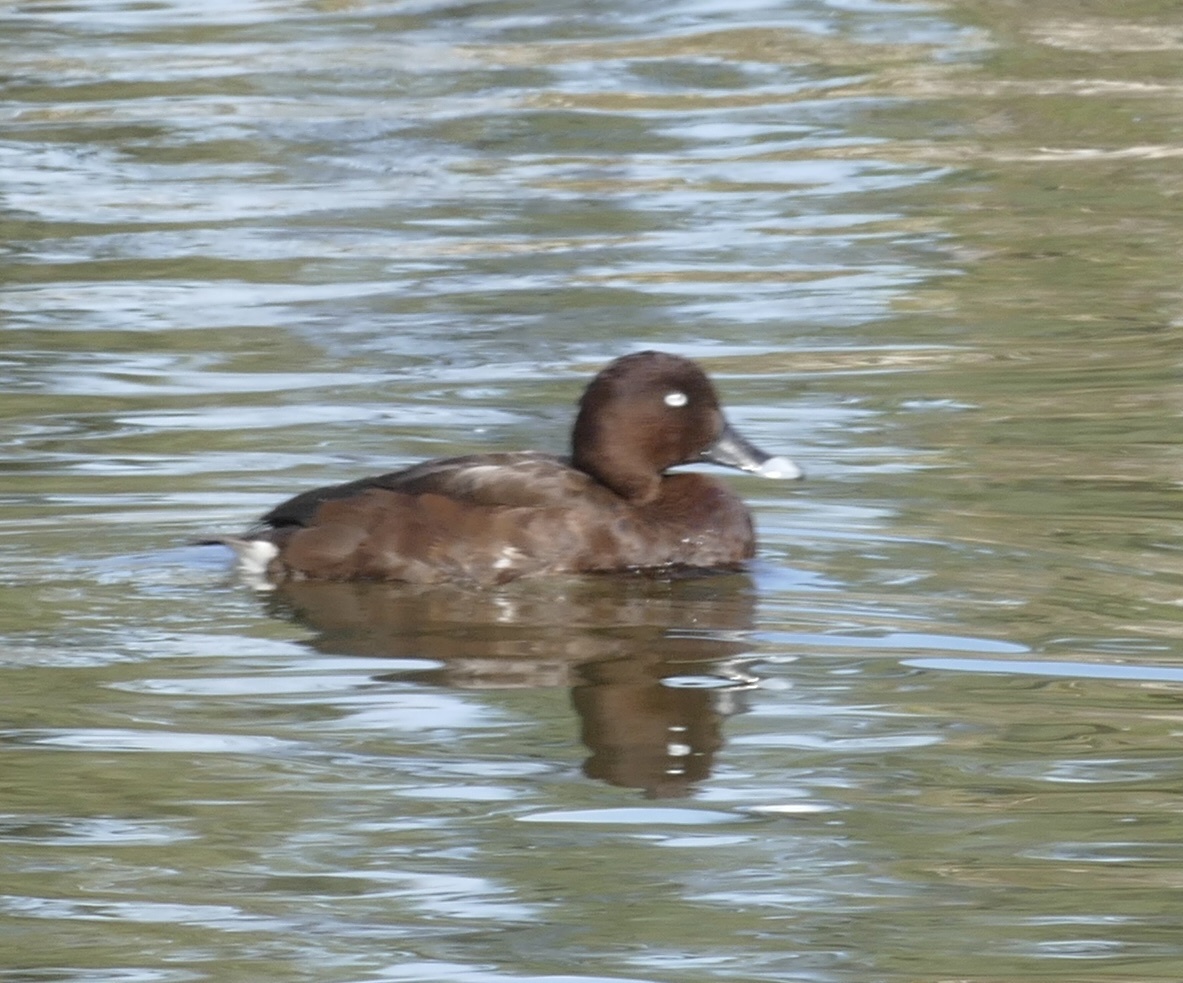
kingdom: Animalia
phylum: Chordata
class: Aves
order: Anseriformes
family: Anatidae
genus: Aythya
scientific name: Aythya australis
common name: Hardhead
